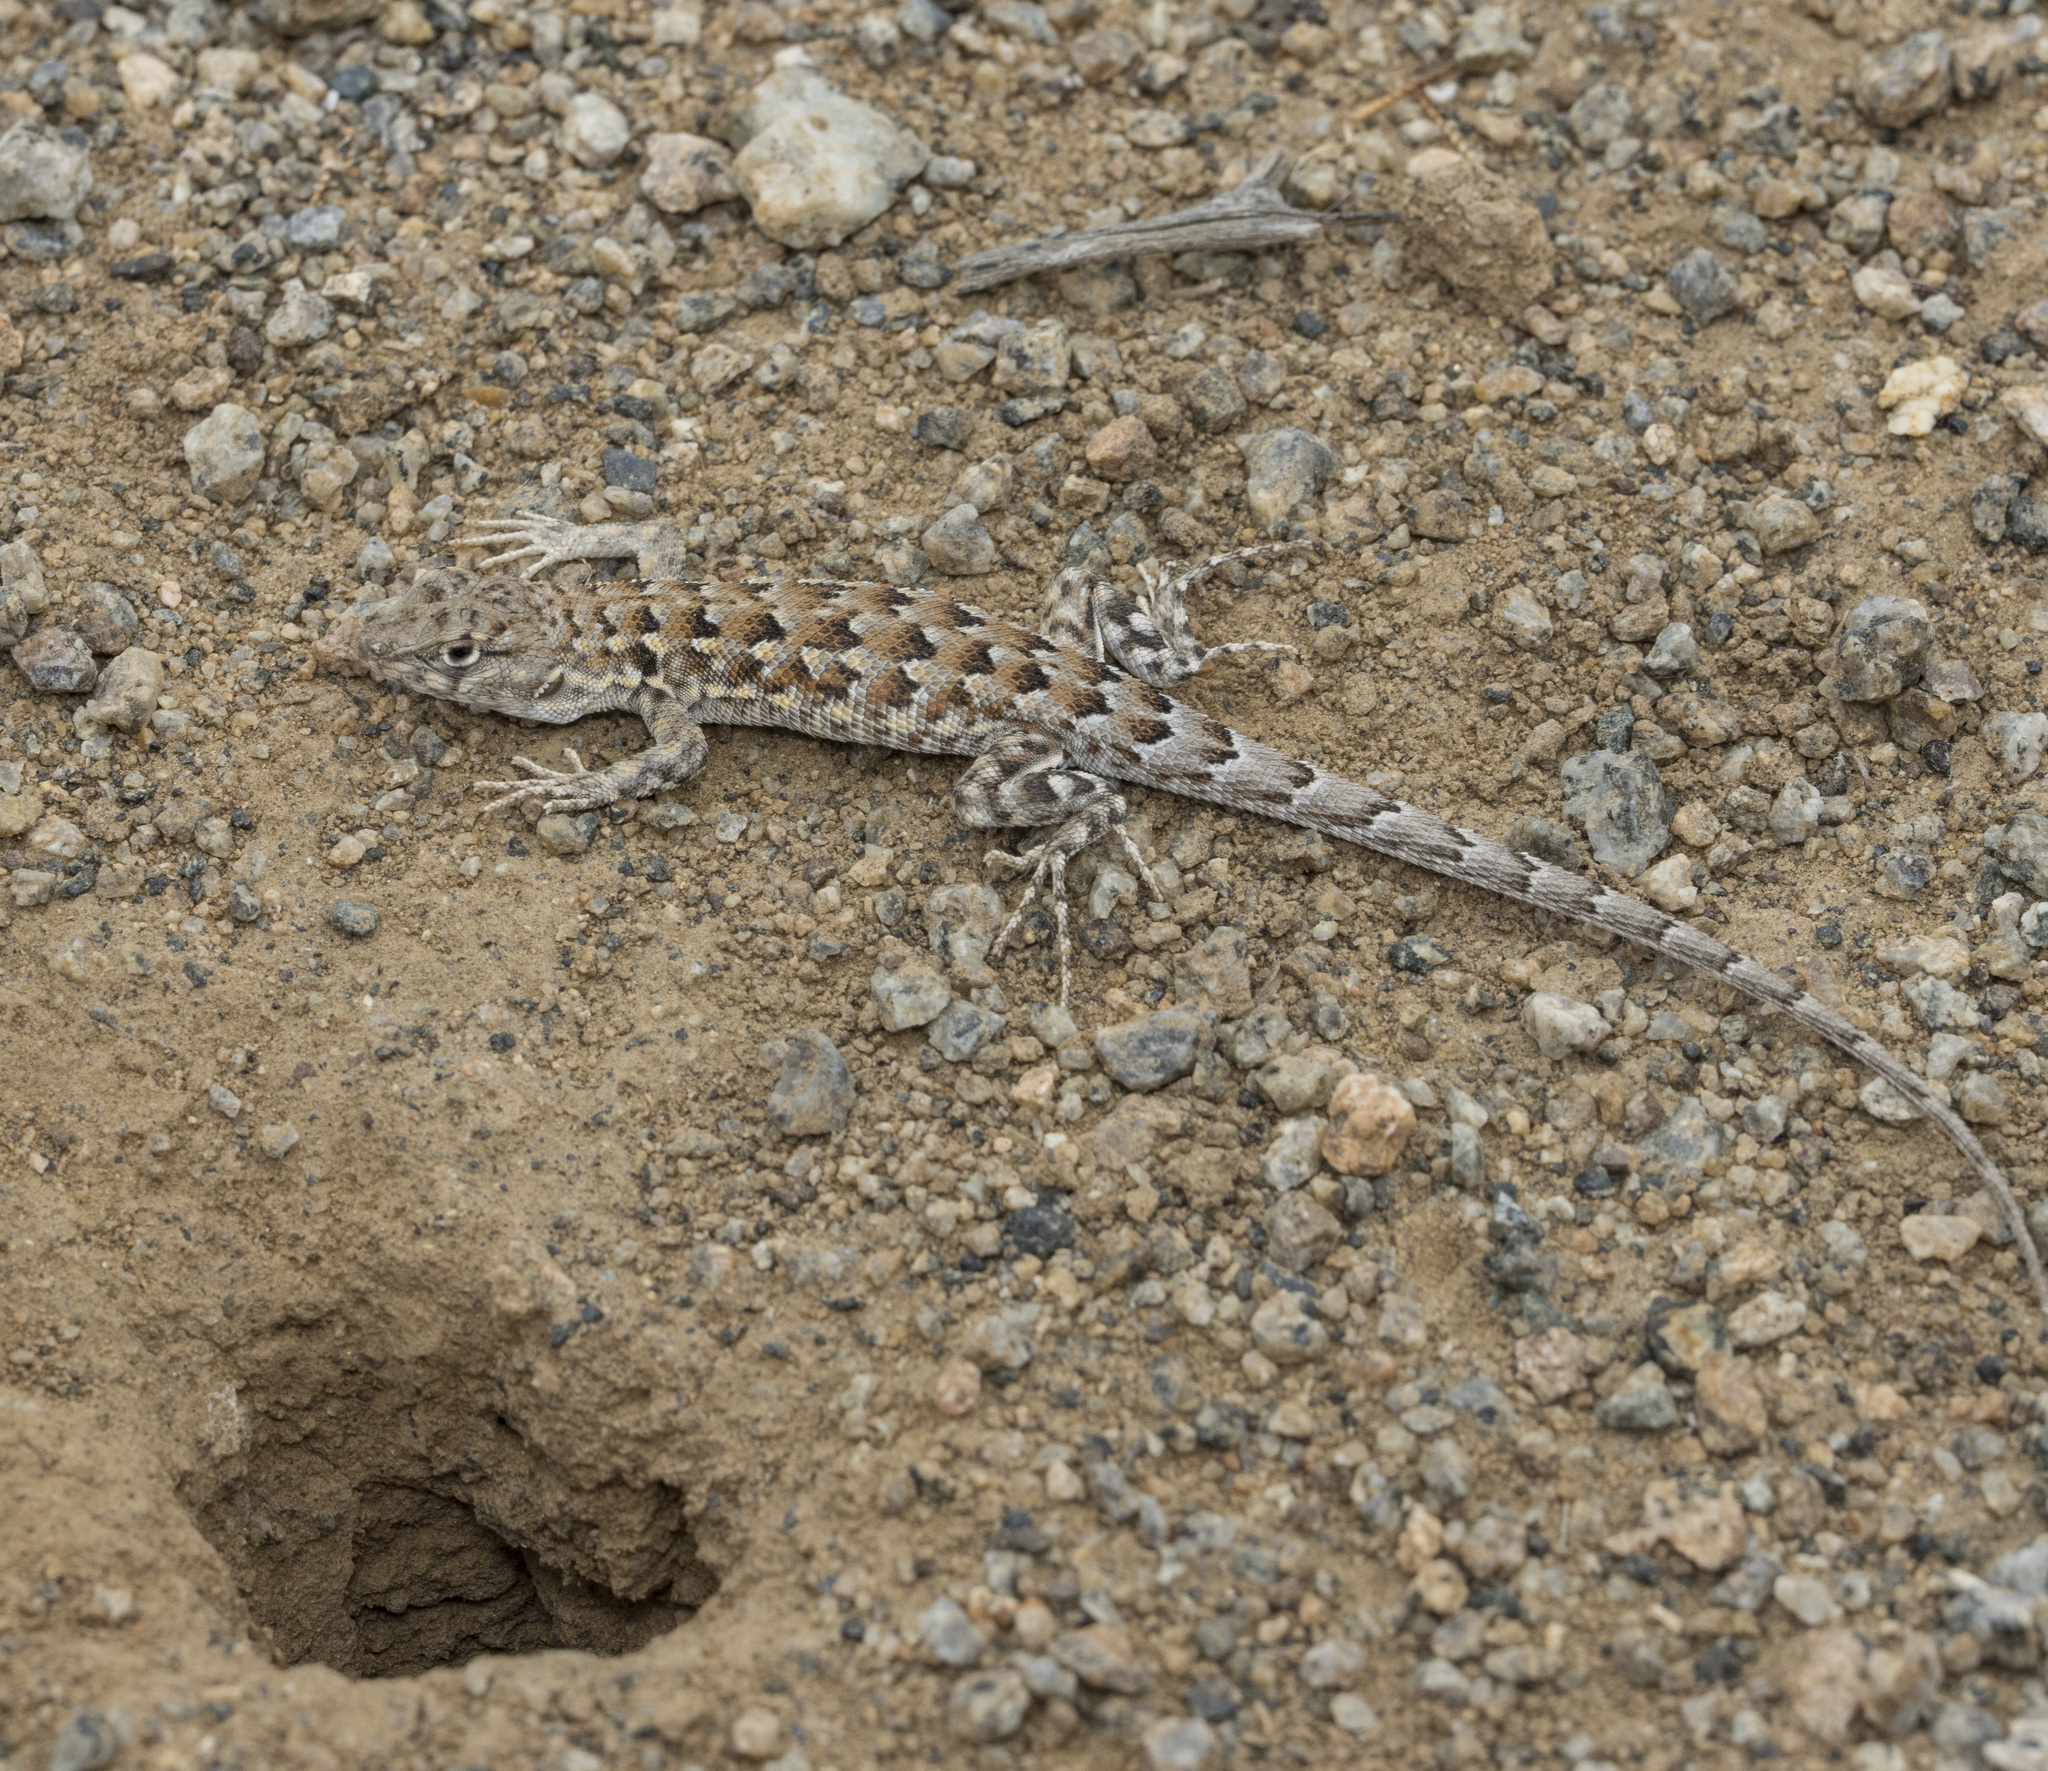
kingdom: Animalia
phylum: Chordata
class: Squamata
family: Liolaemidae
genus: Liolaemus
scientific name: Liolaemus atacamensis
